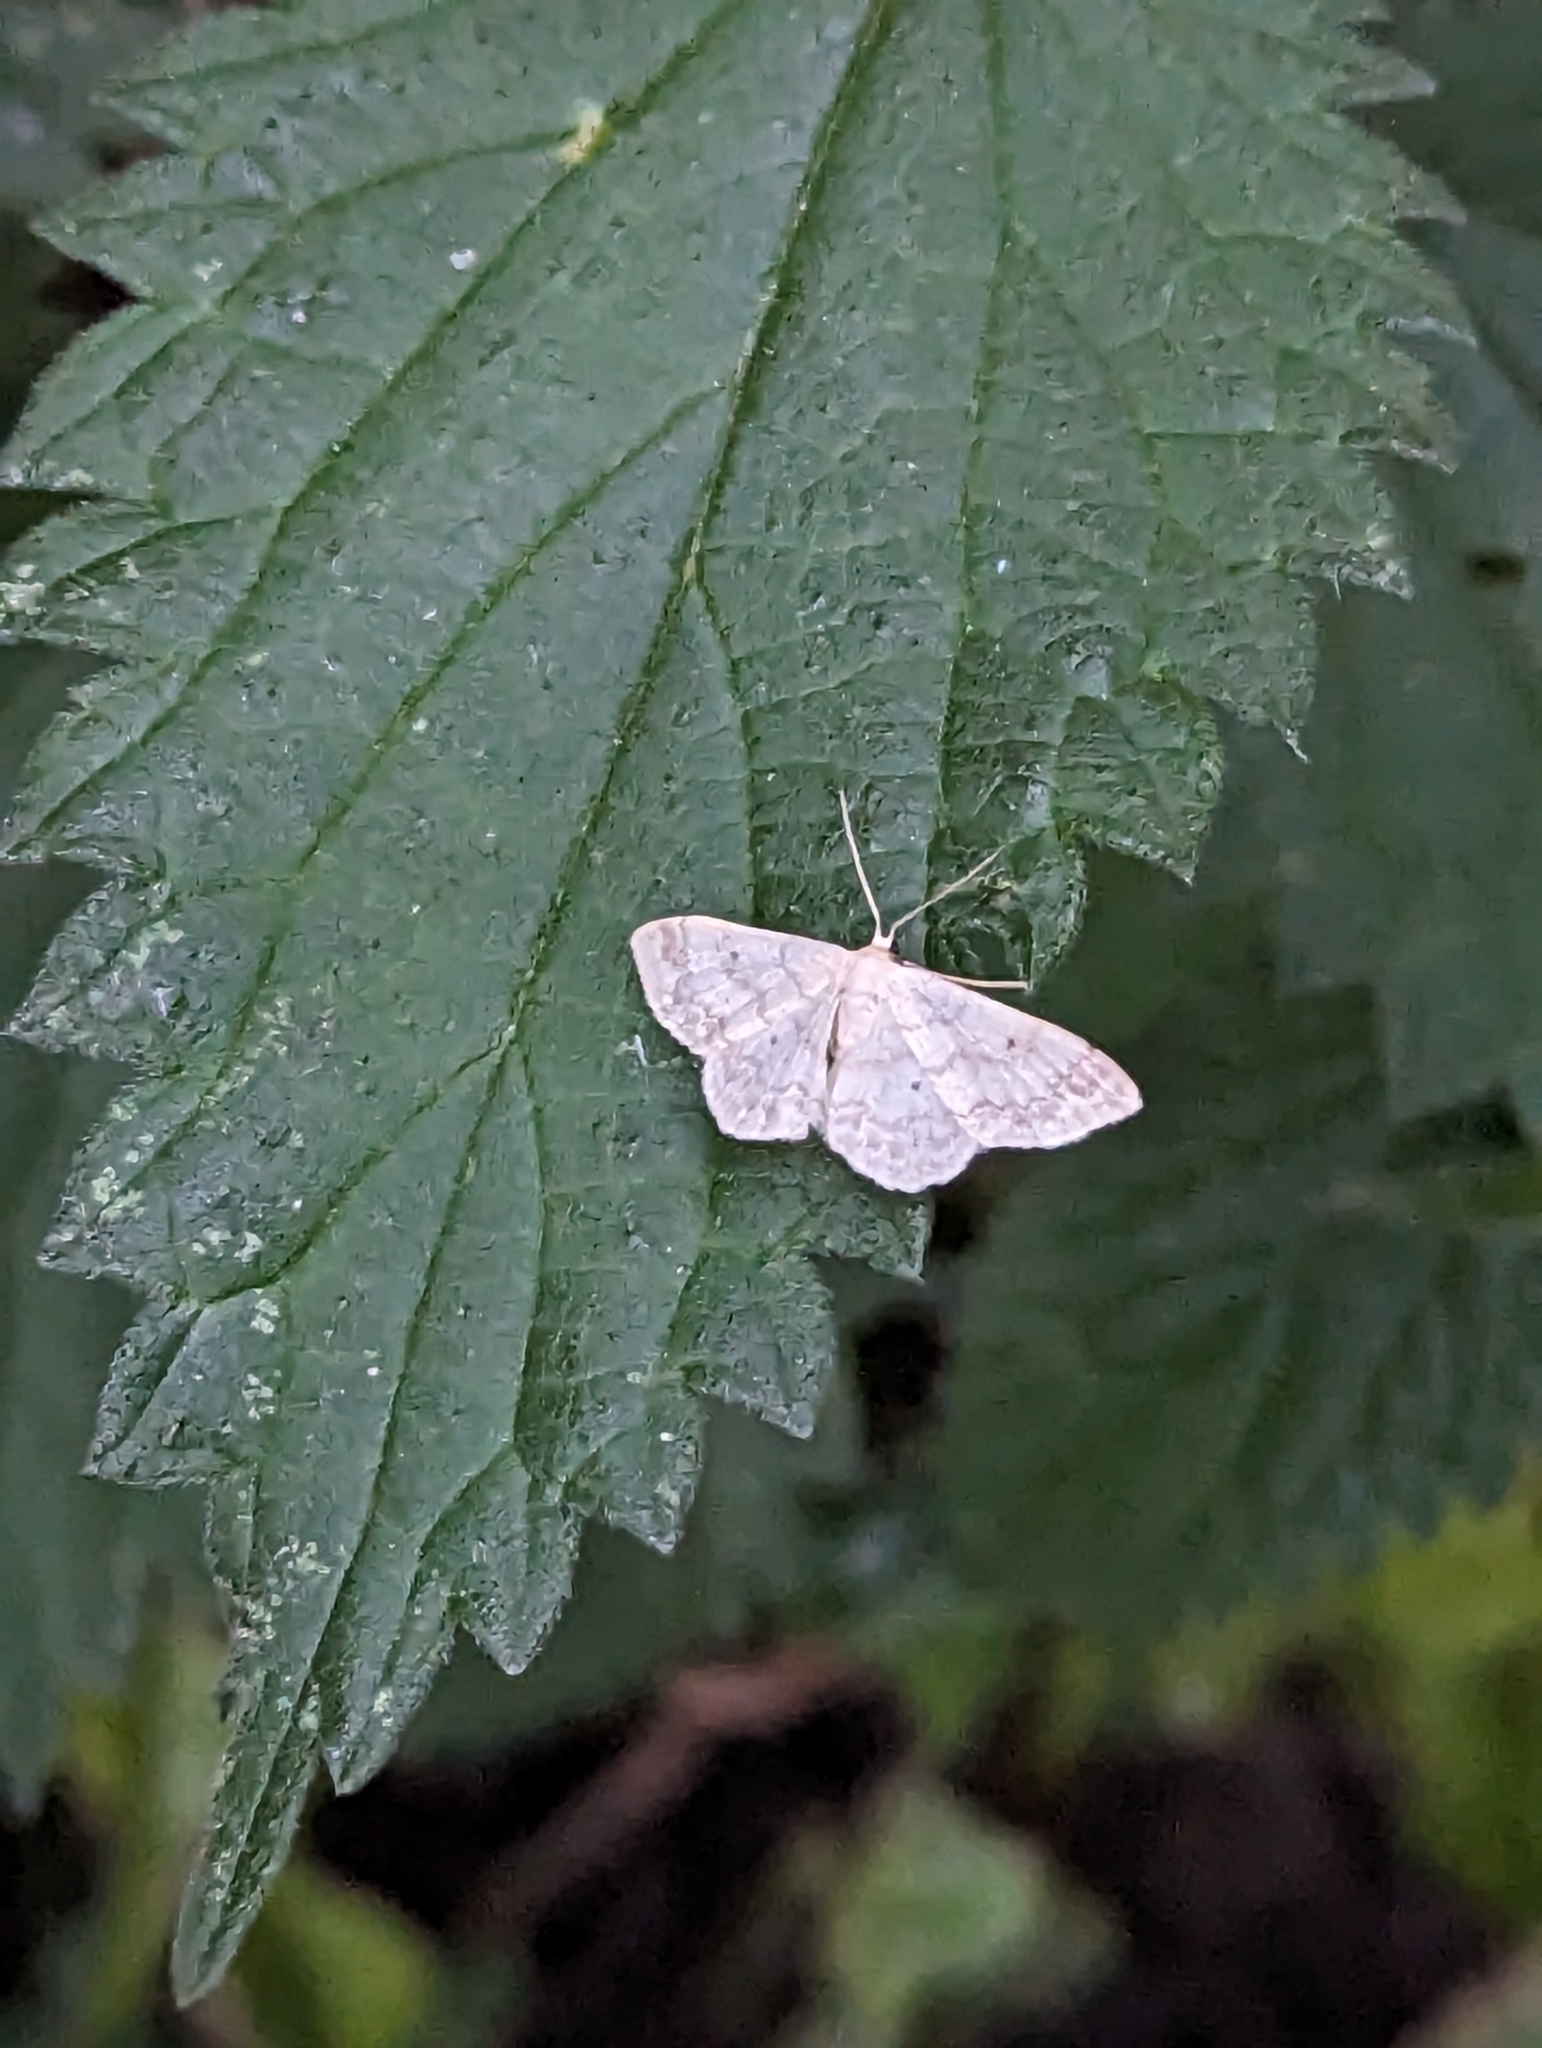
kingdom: Animalia
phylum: Arthropoda
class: Insecta
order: Lepidoptera
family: Geometridae
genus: Idaea
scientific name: Idaea biselata
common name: Small fan-footed wave
